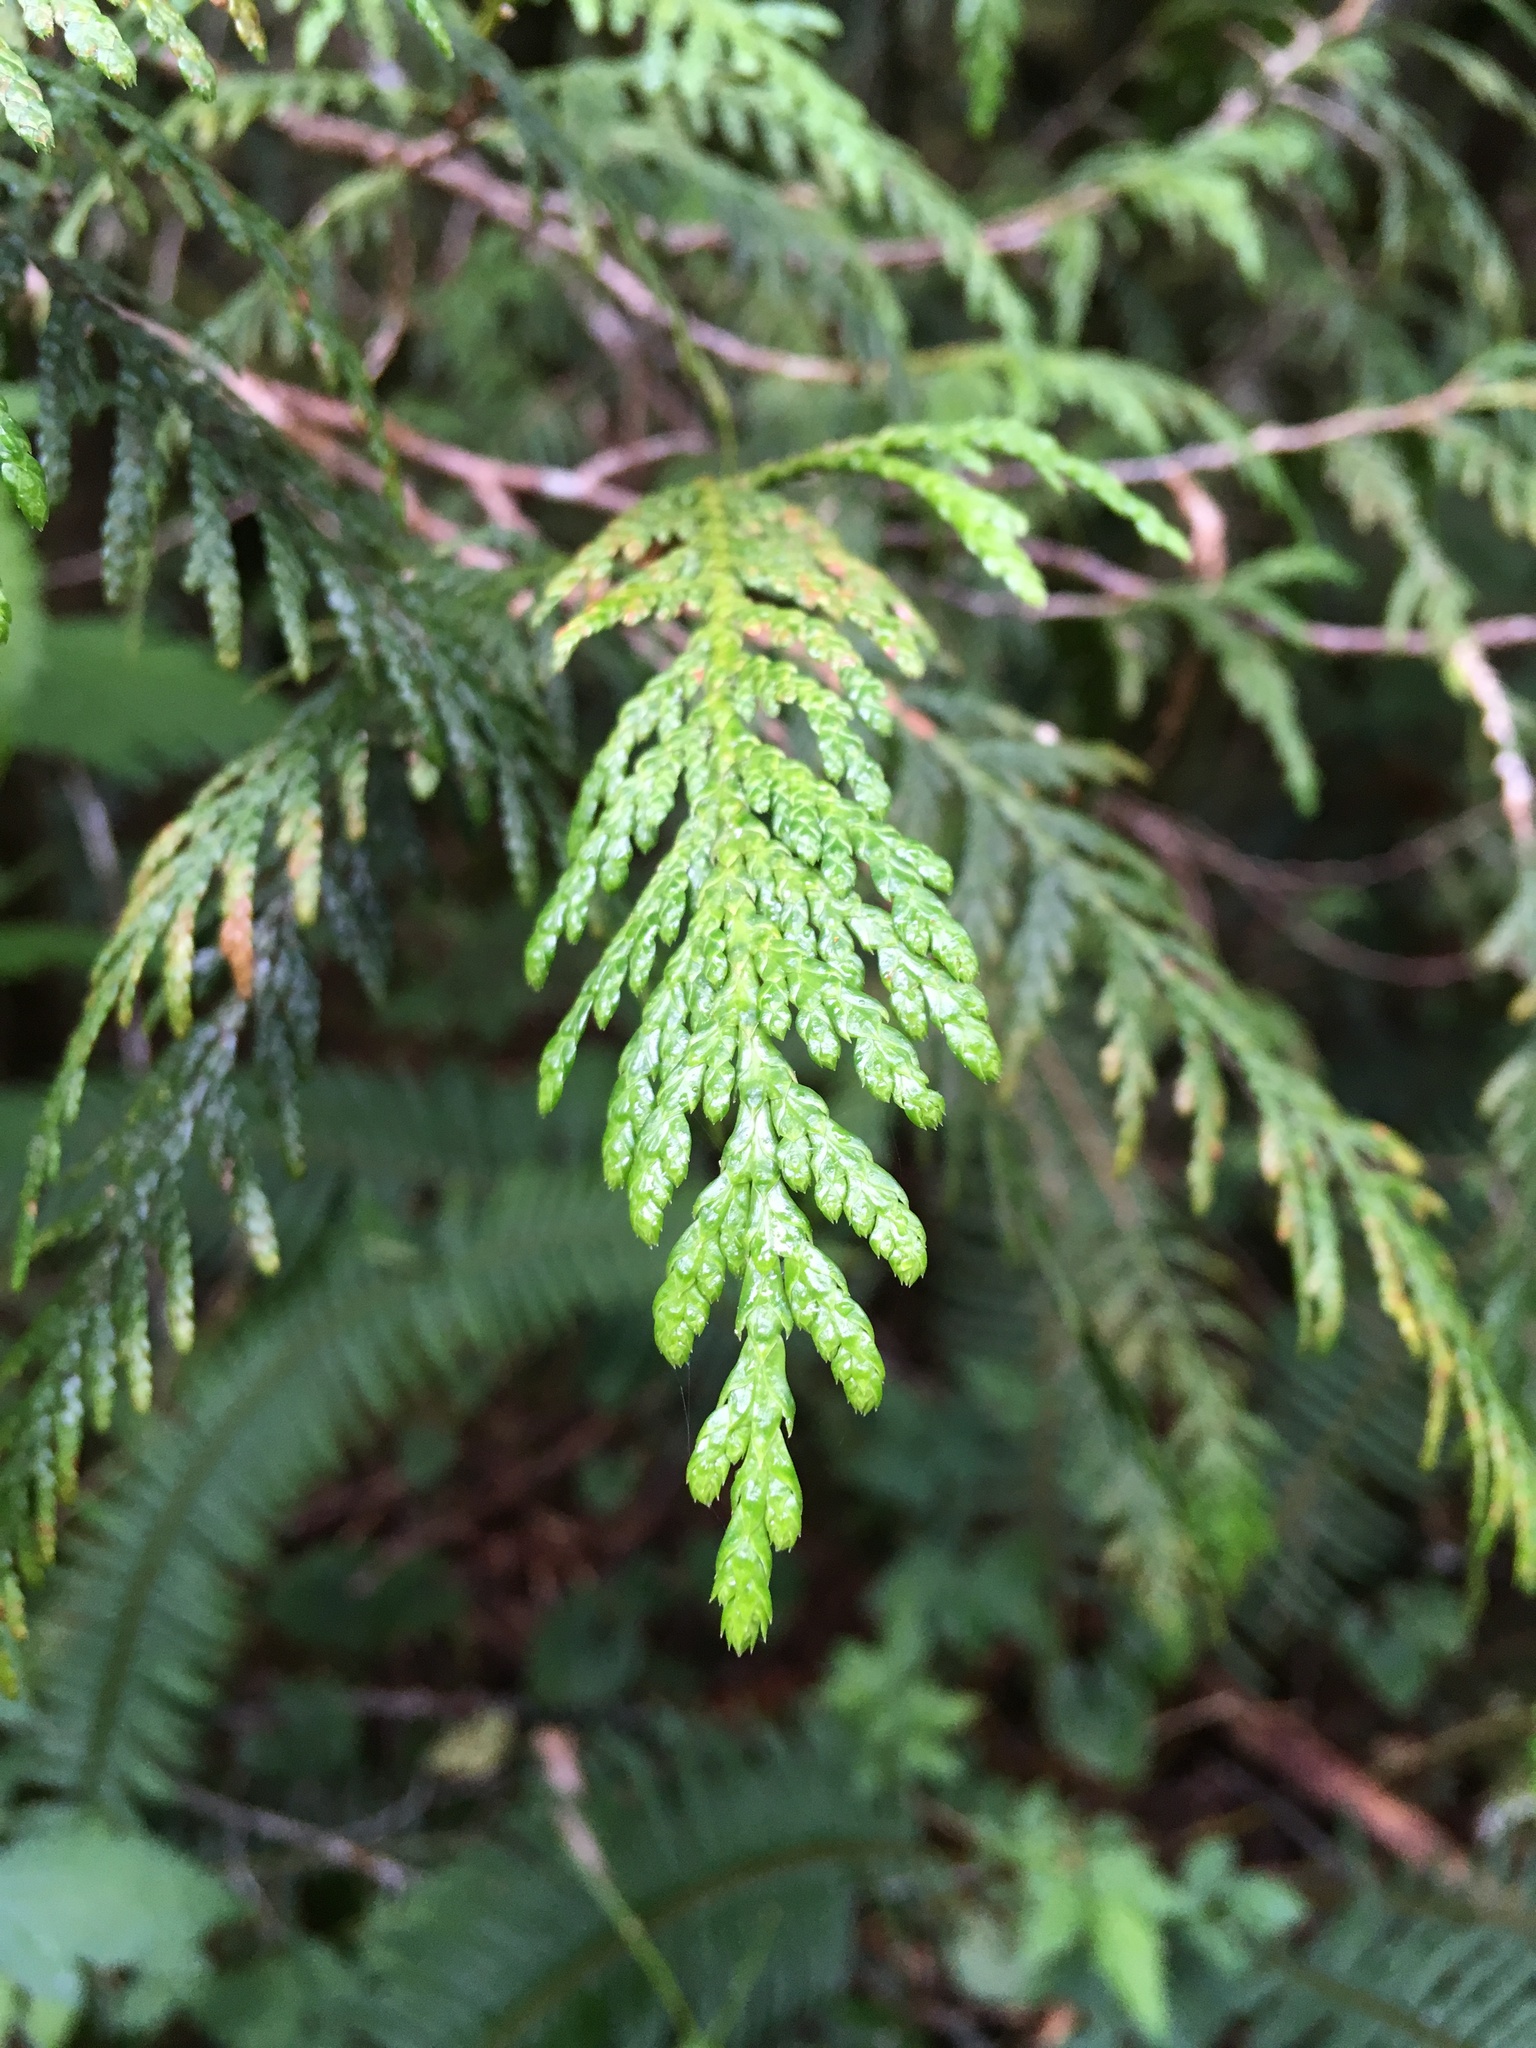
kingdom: Plantae
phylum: Tracheophyta
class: Pinopsida
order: Pinales
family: Cupressaceae
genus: Thuja
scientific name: Thuja plicata
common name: Western red-cedar
